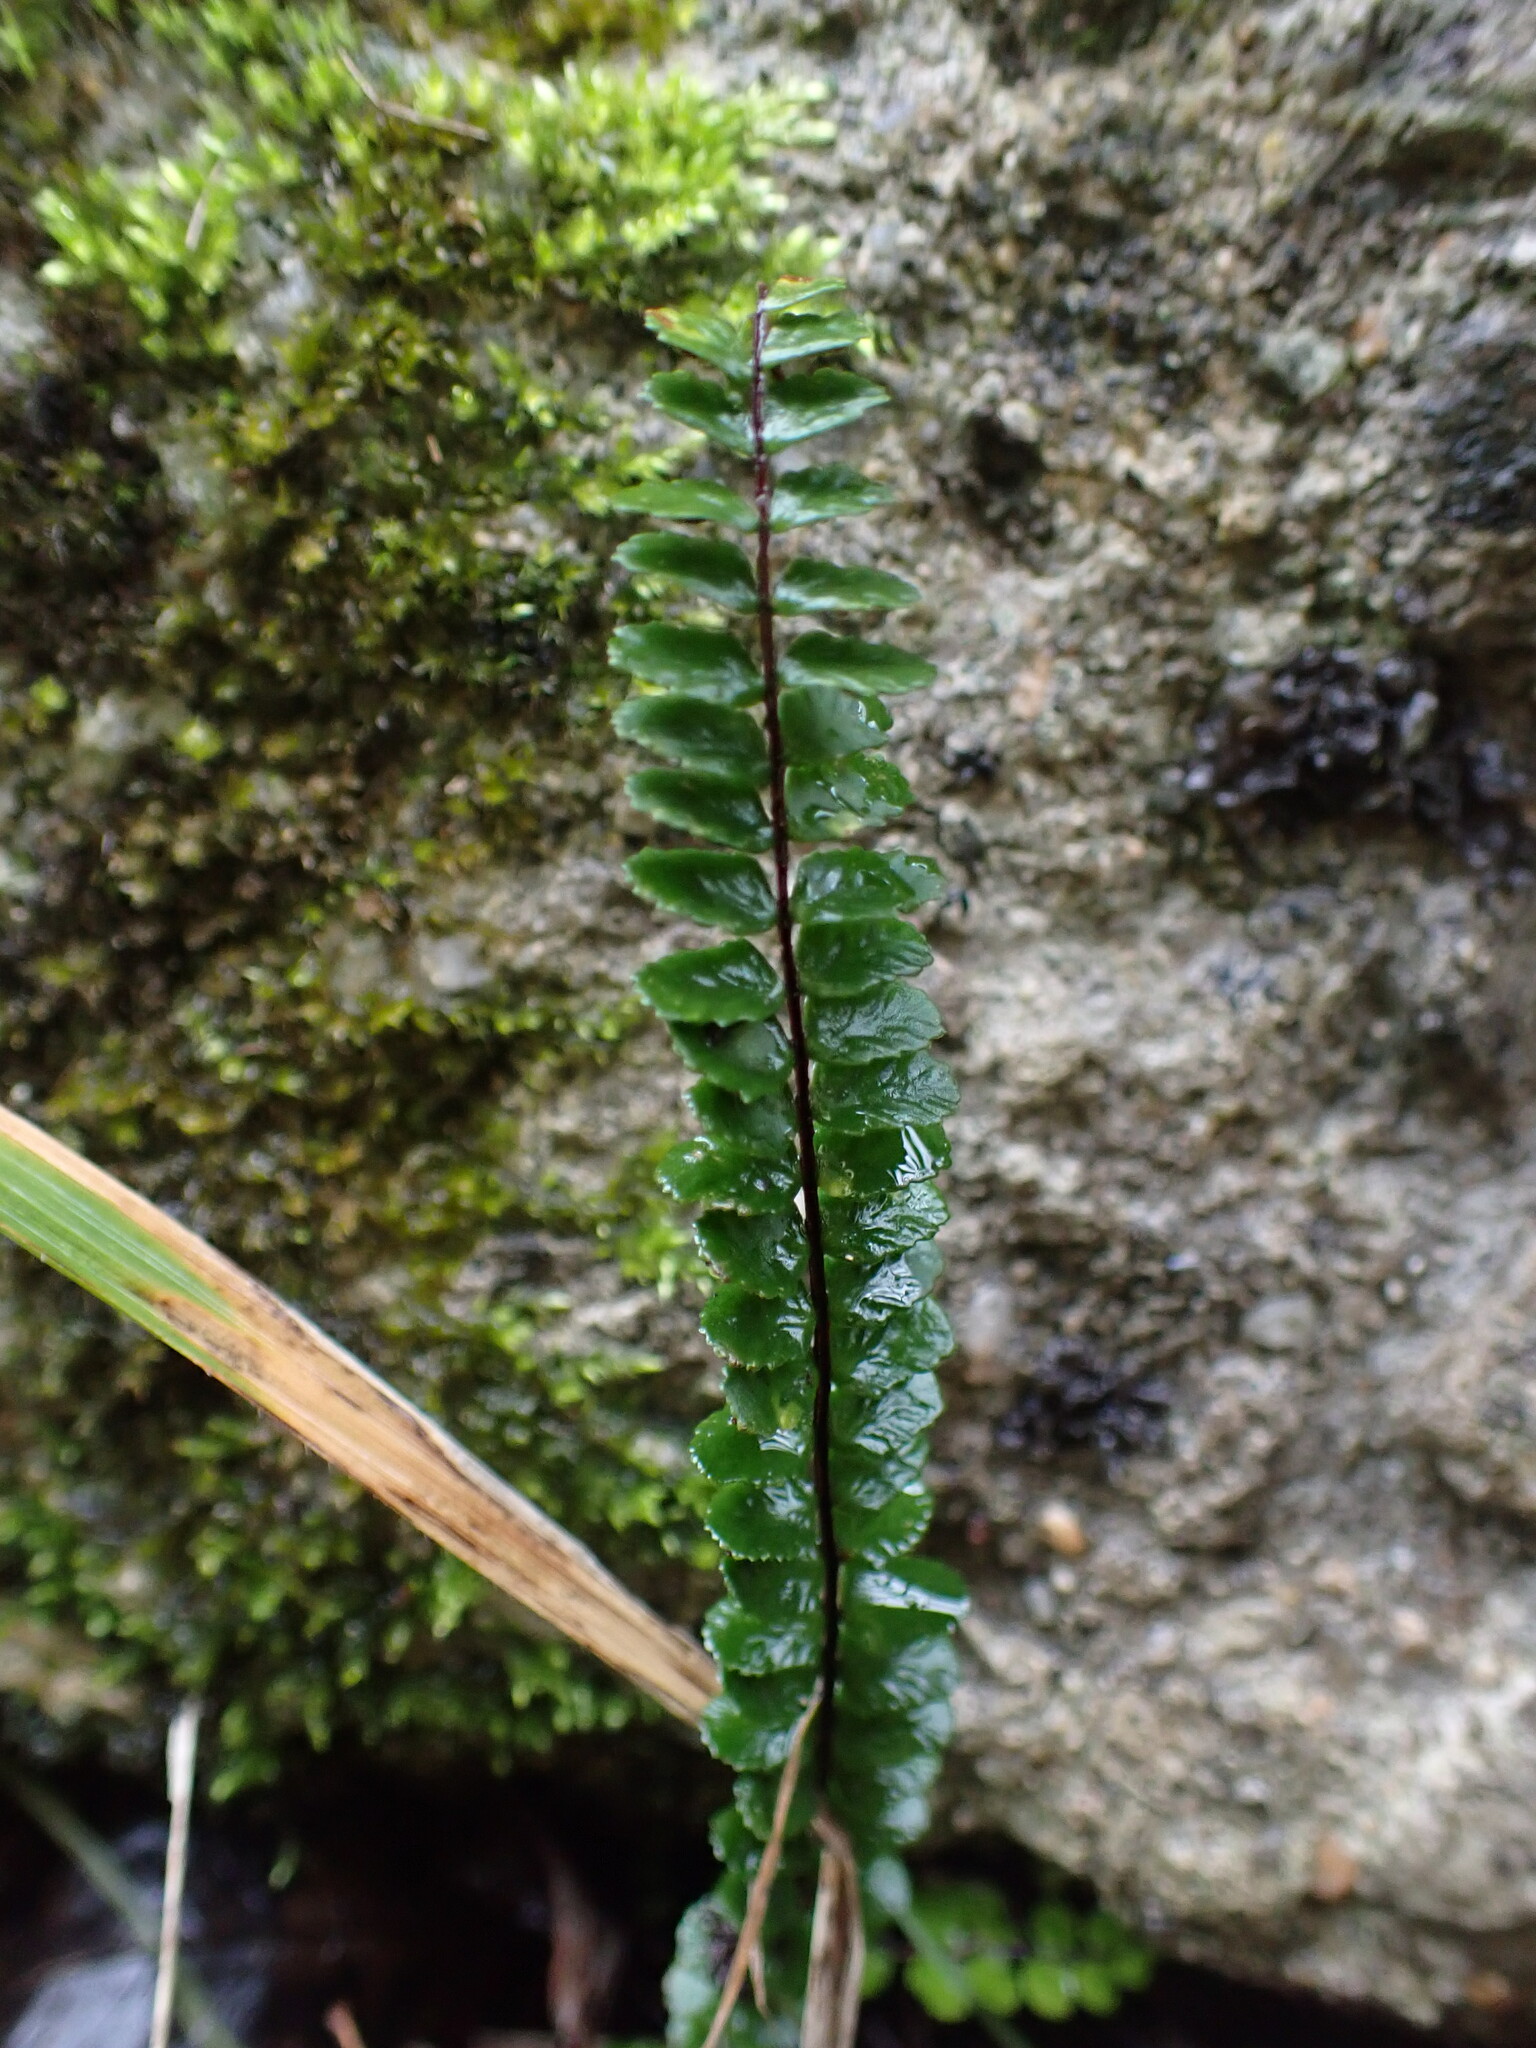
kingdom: Plantae
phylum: Tracheophyta
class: Polypodiopsida
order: Polypodiales
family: Aspleniaceae
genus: Asplenium
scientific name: Asplenium trichomanes
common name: Maidenhair spleenwort
